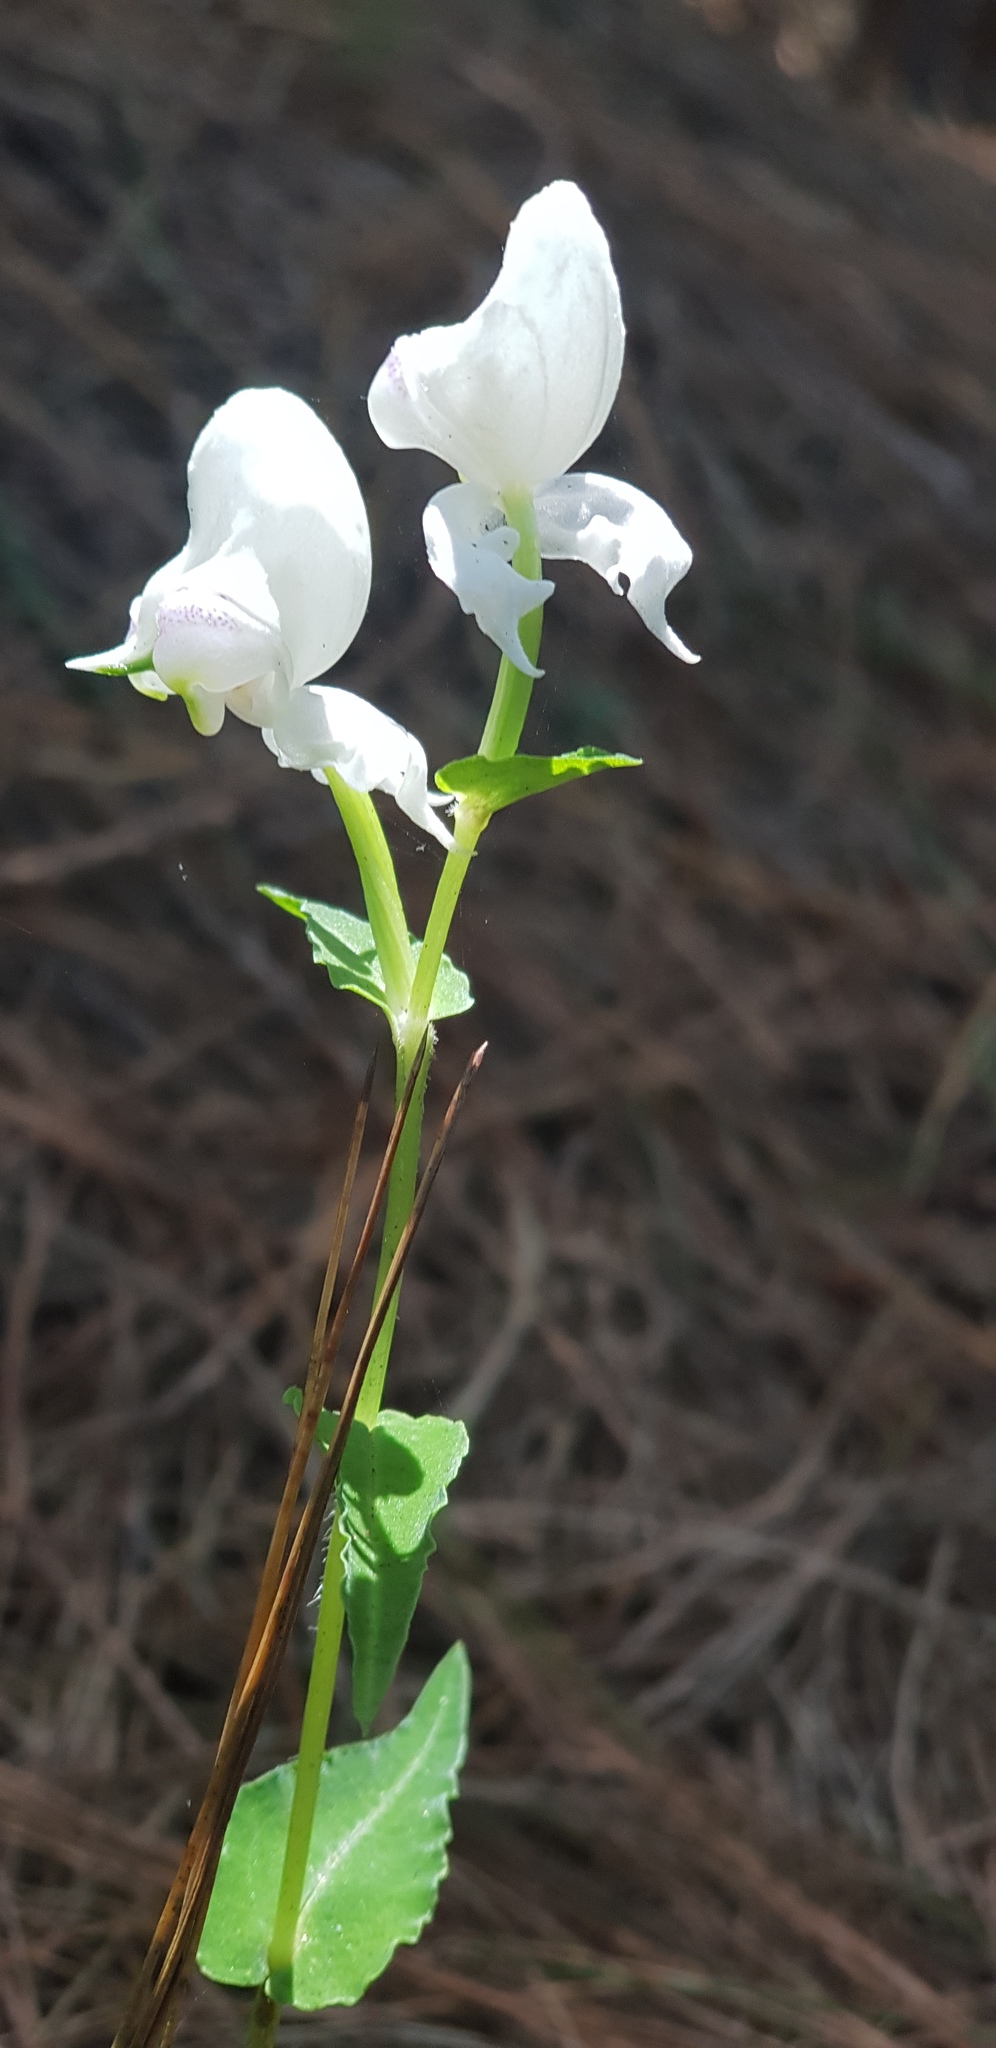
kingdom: Plantae
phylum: Tracheophyta
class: Liliopsida
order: Asparagales
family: Orchidaceae
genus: Disperis
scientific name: Disperis fanniniae
